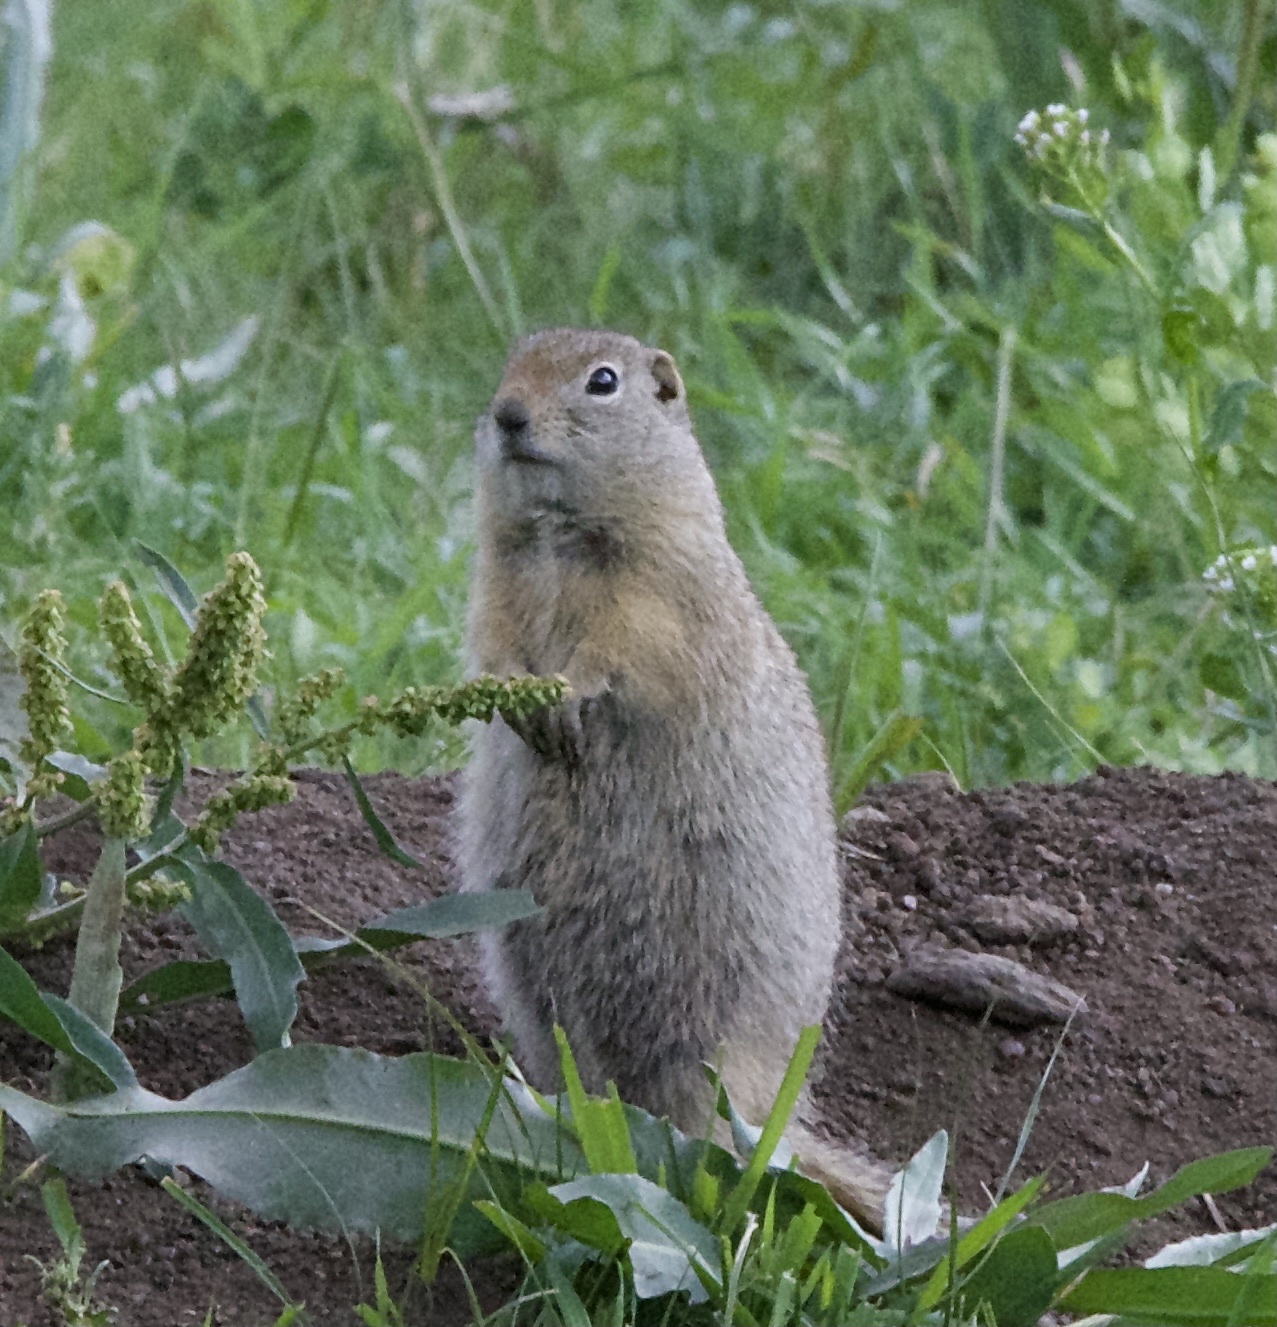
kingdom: Animalia
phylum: Chordata
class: Mammalia
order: Rodentia
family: Sciuridae
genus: Urocitellus
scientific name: Urocitellus elegans
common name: Wyoming ground squirrel
